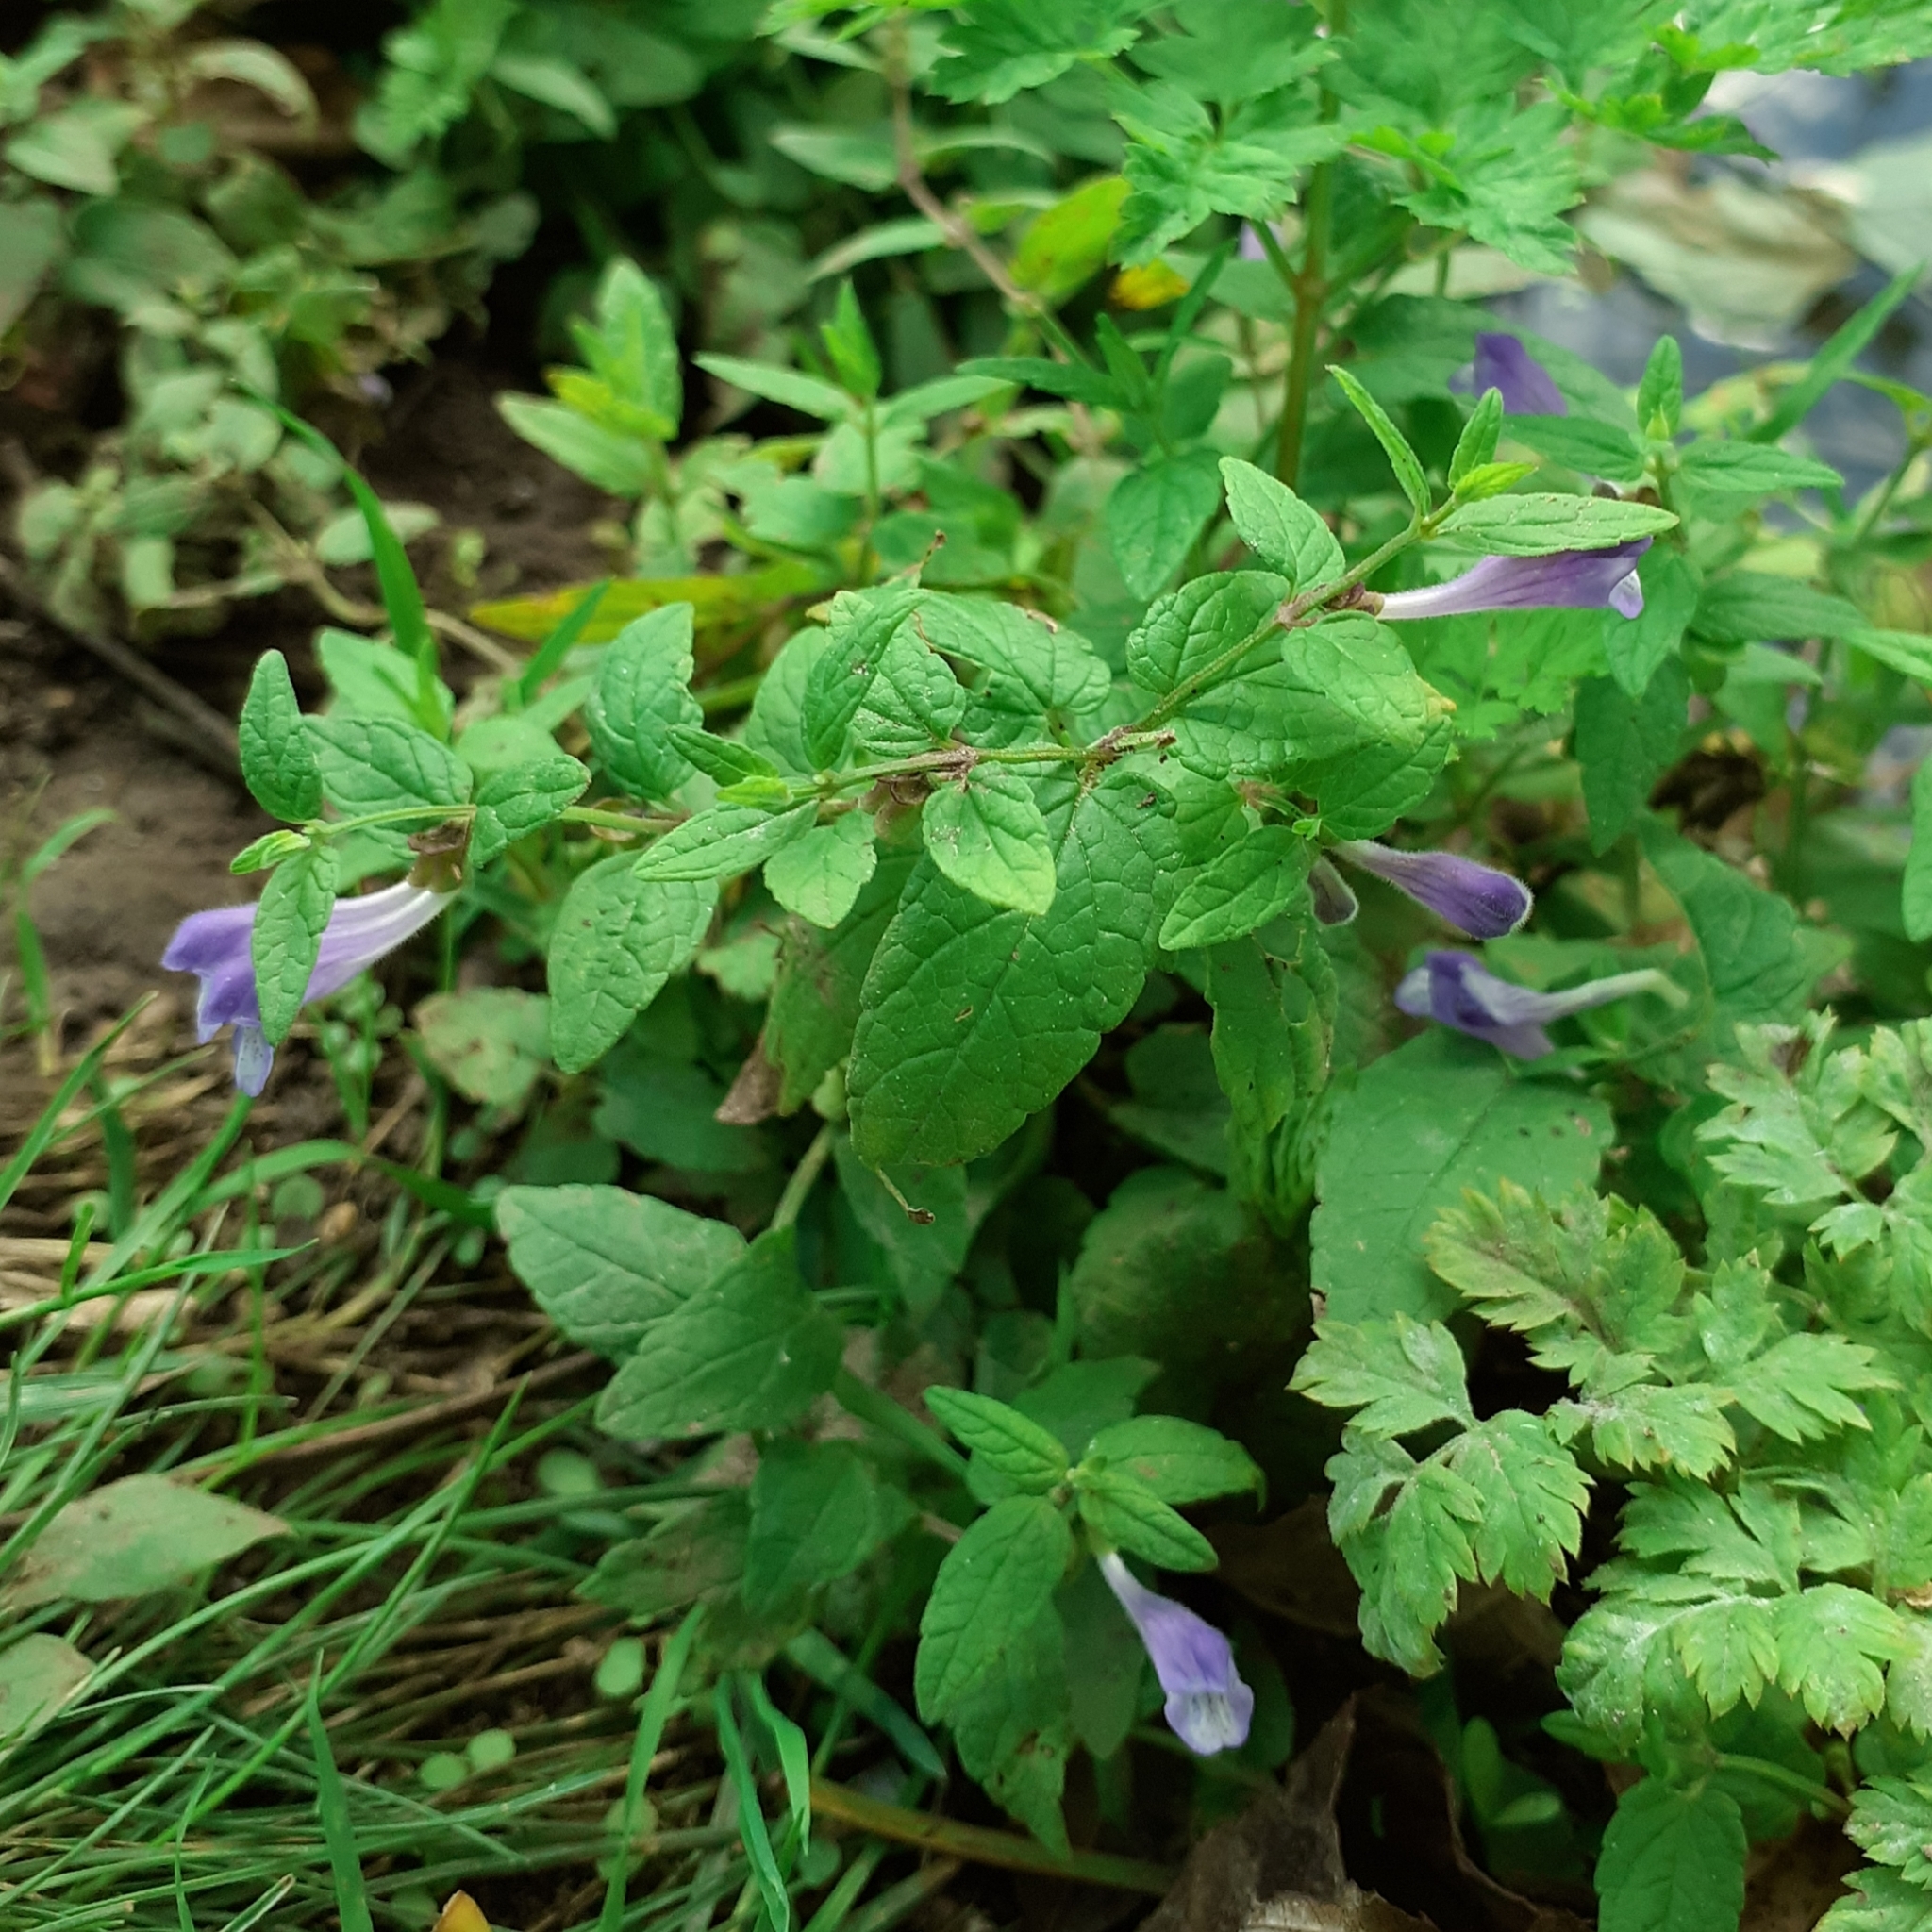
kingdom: Plantae
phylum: Tracheophyta
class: Magnoliopsida
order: Lamiales
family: Lamiaceae
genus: Scutellaria
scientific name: Scutellaria galericulata
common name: Skullcap
